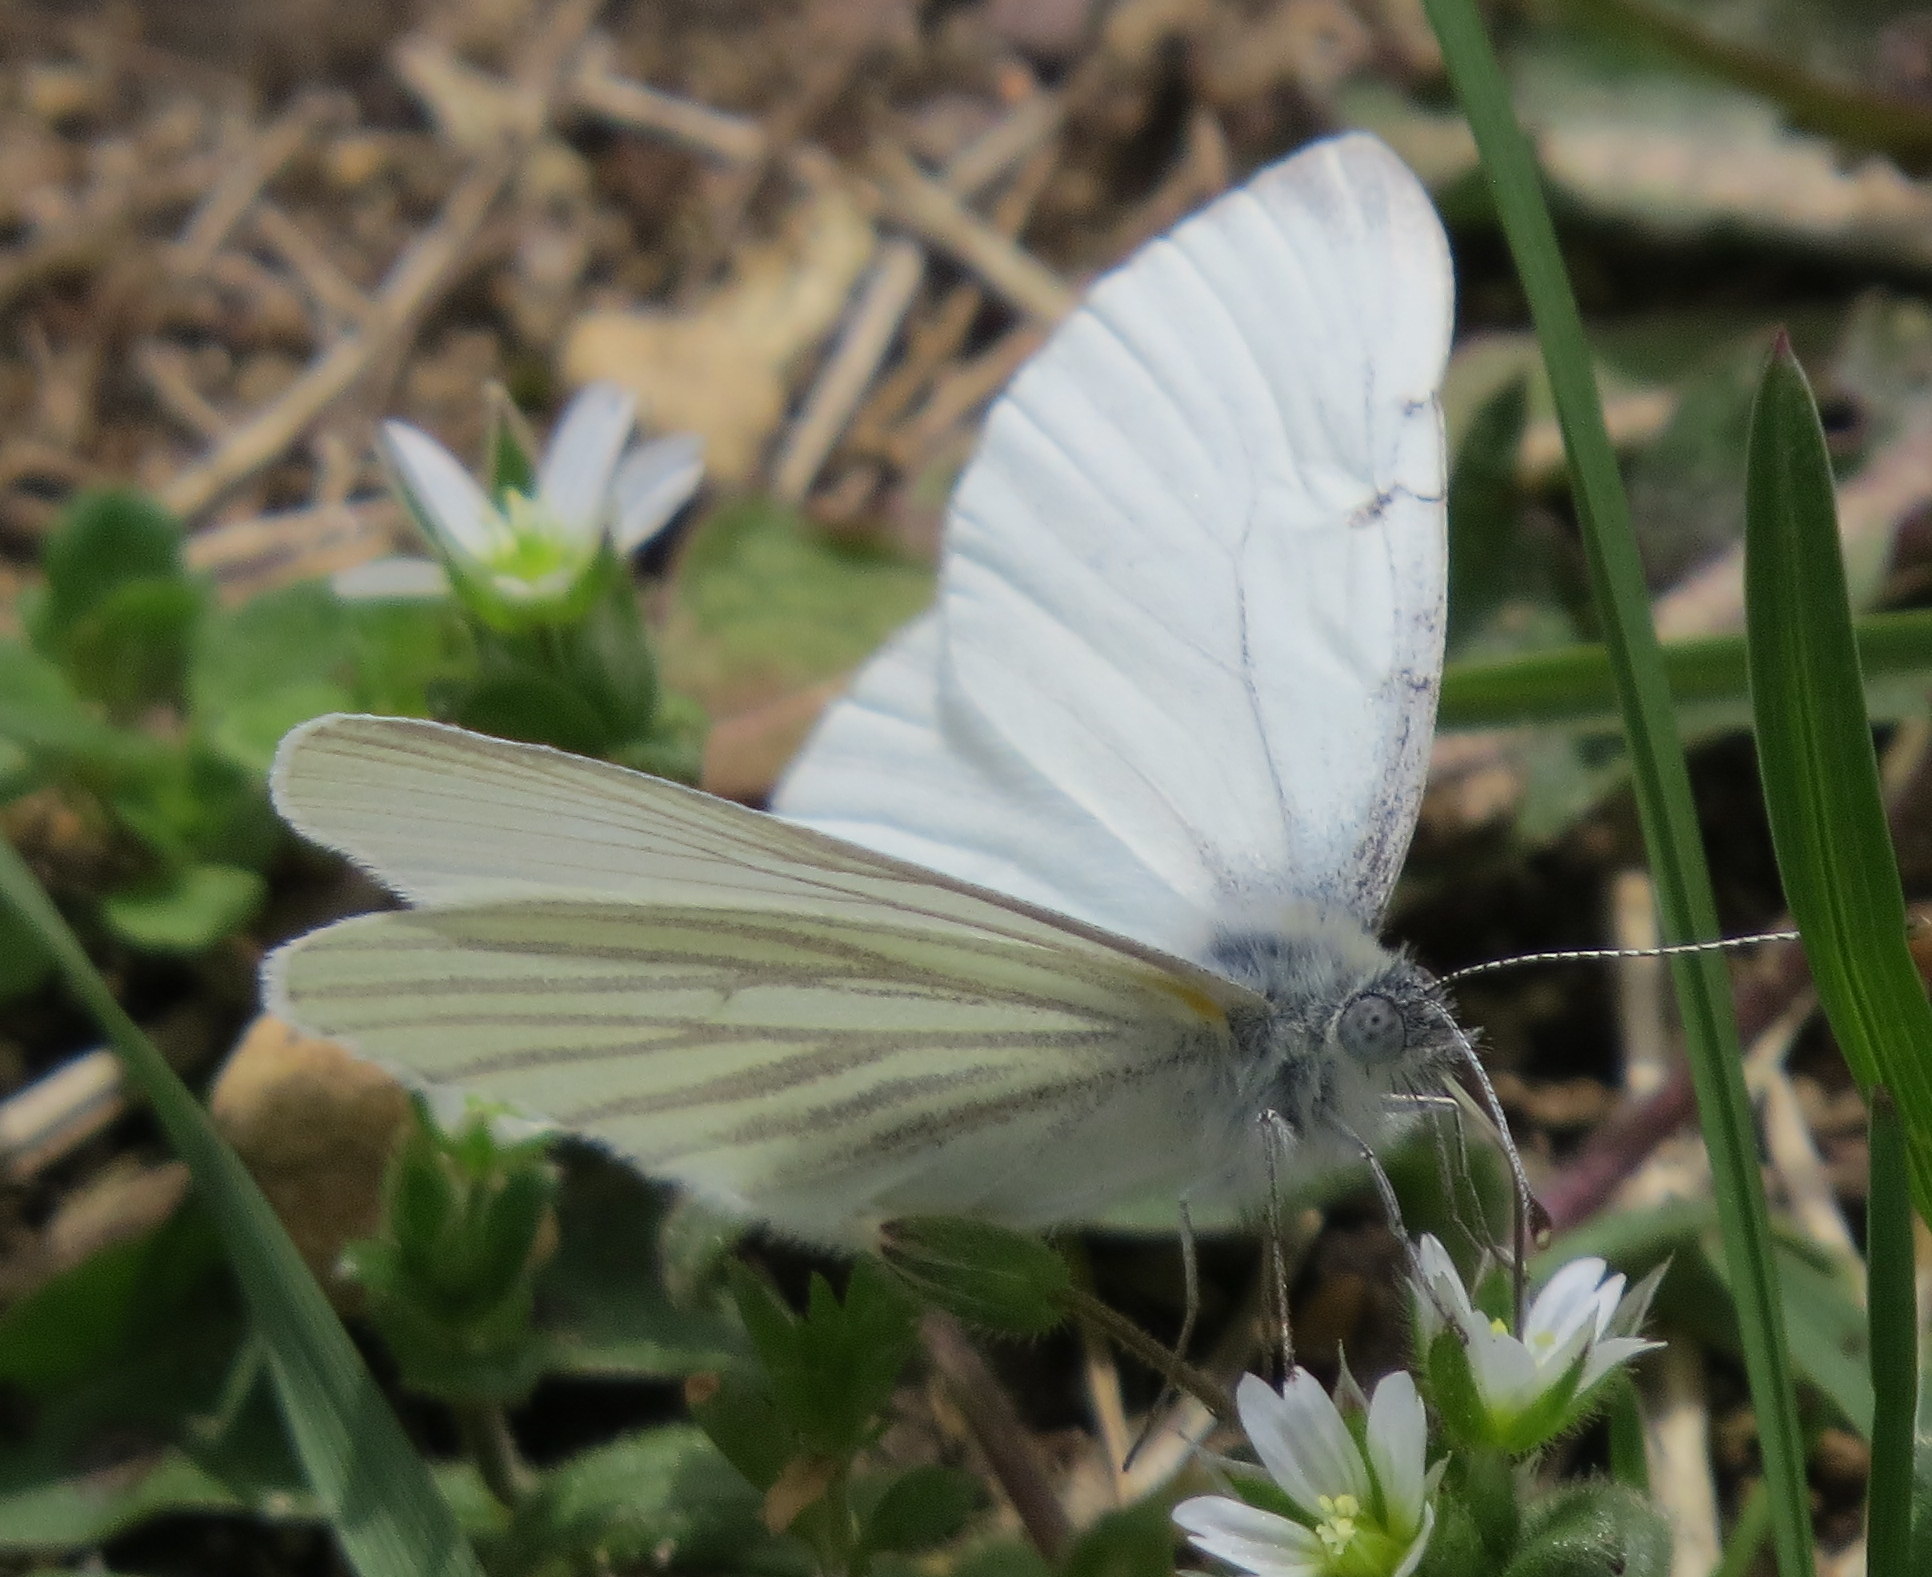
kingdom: Animalia
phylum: Arthropoda
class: Insecta
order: Lepidoptera
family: Pieridae
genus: Pieris
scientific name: Pieris oleracea
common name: Mustard white
